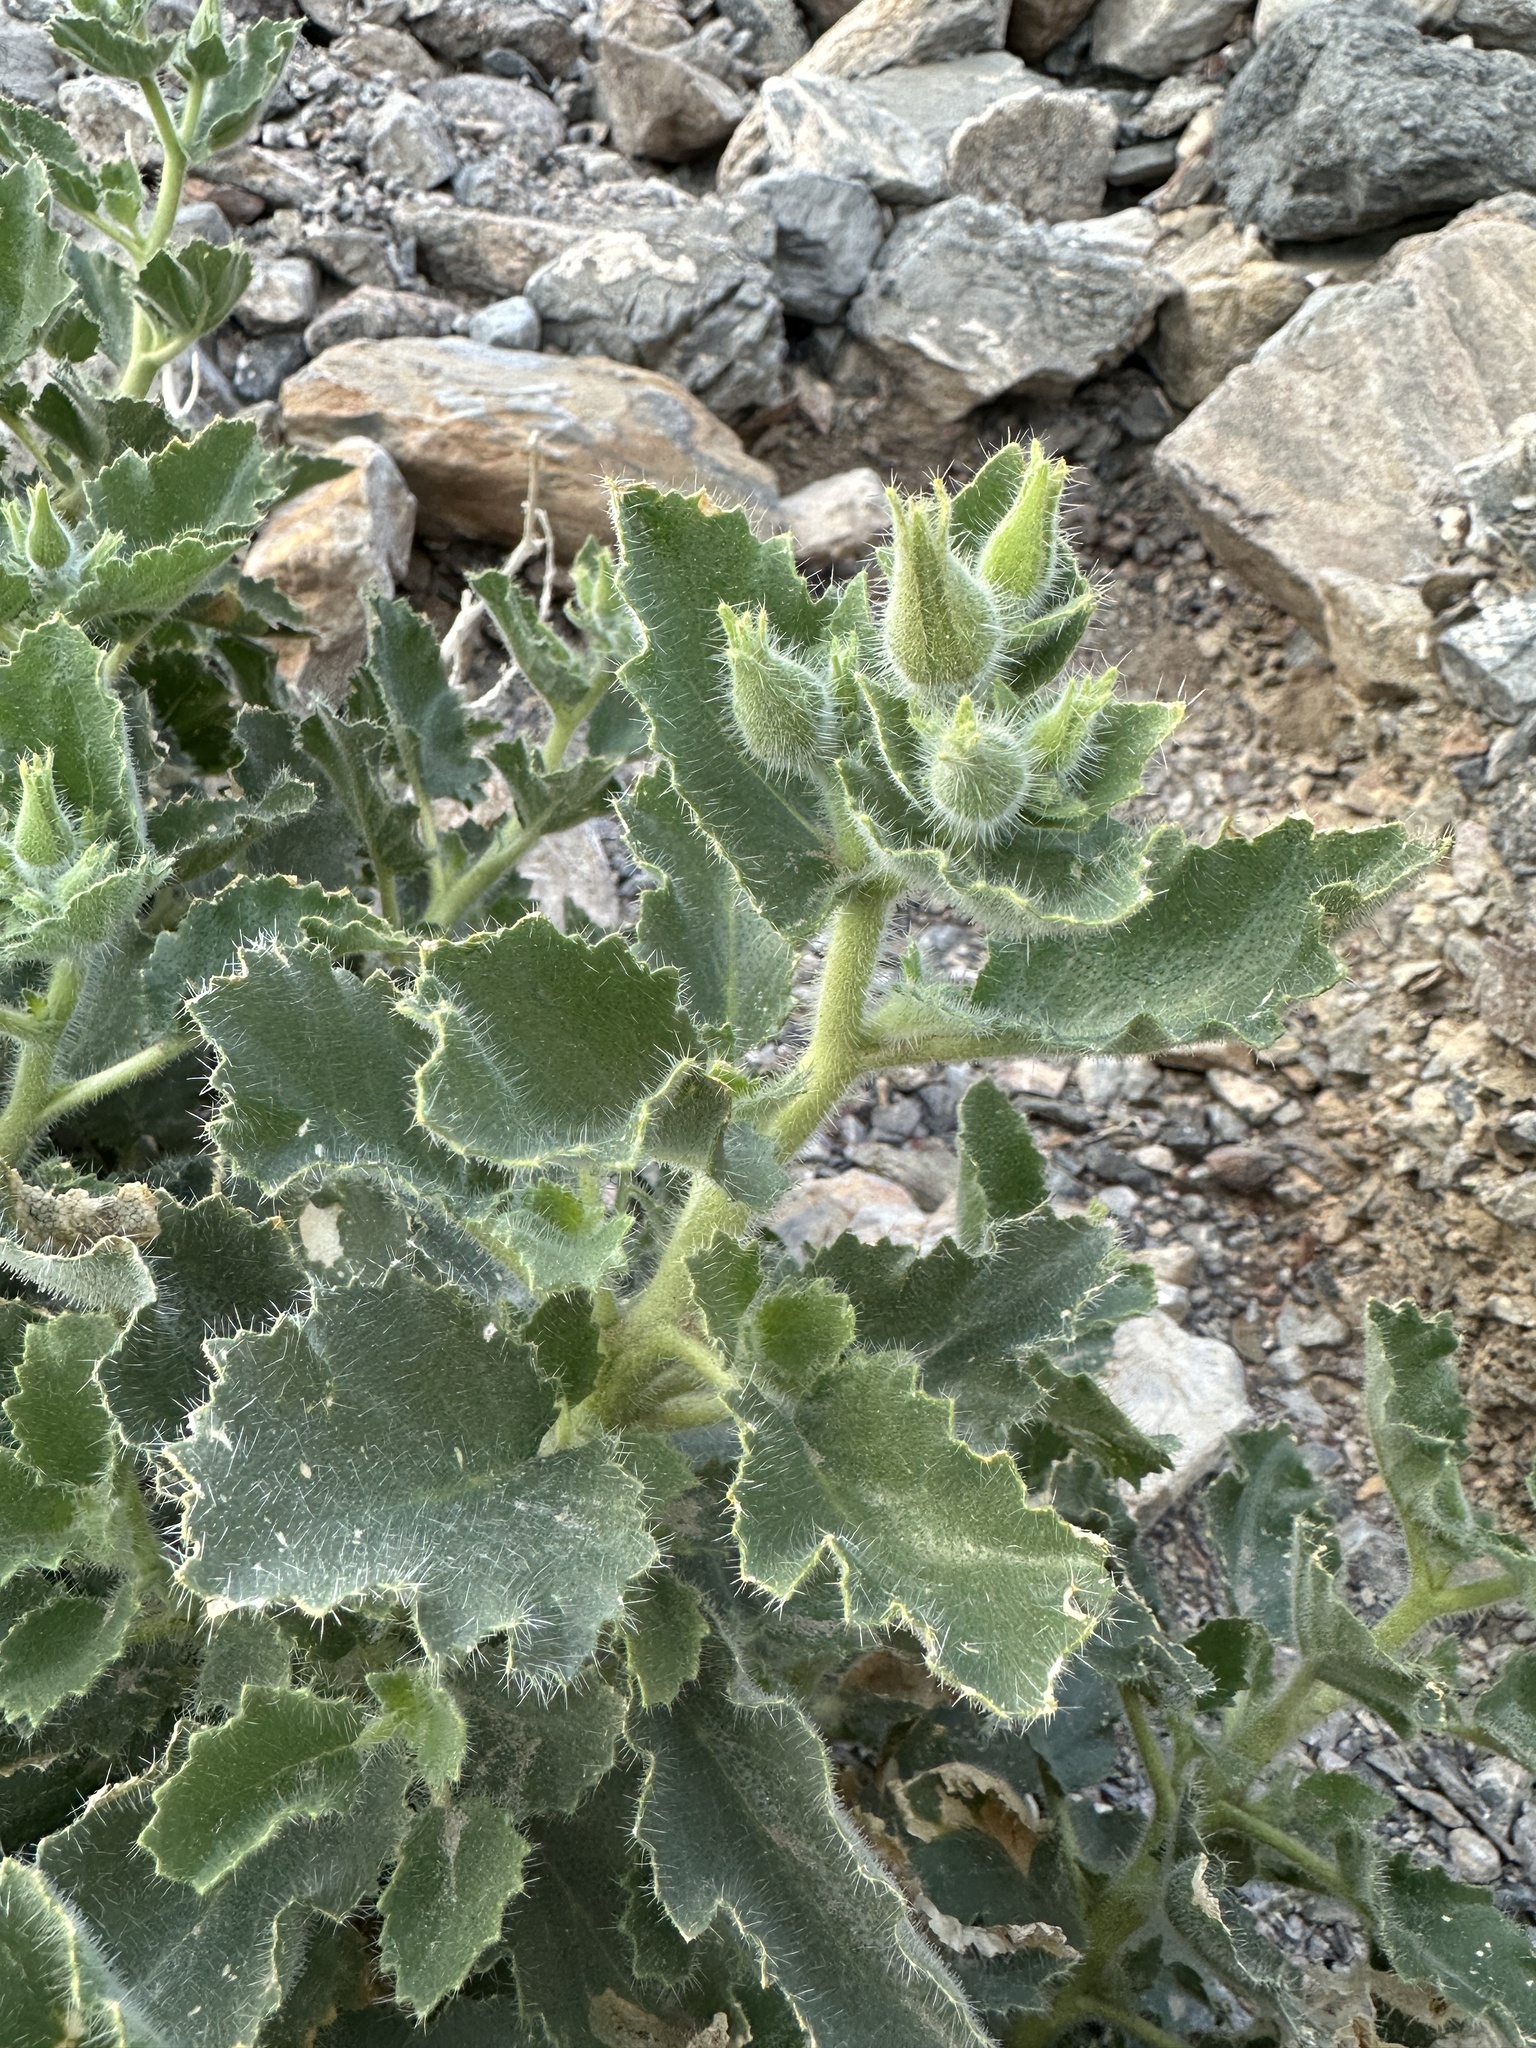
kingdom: Plantae
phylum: Tracheophyta
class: Magnoliopsida
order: Cornales
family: Loasaceae
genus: Eucnide
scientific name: Eucnide urens
